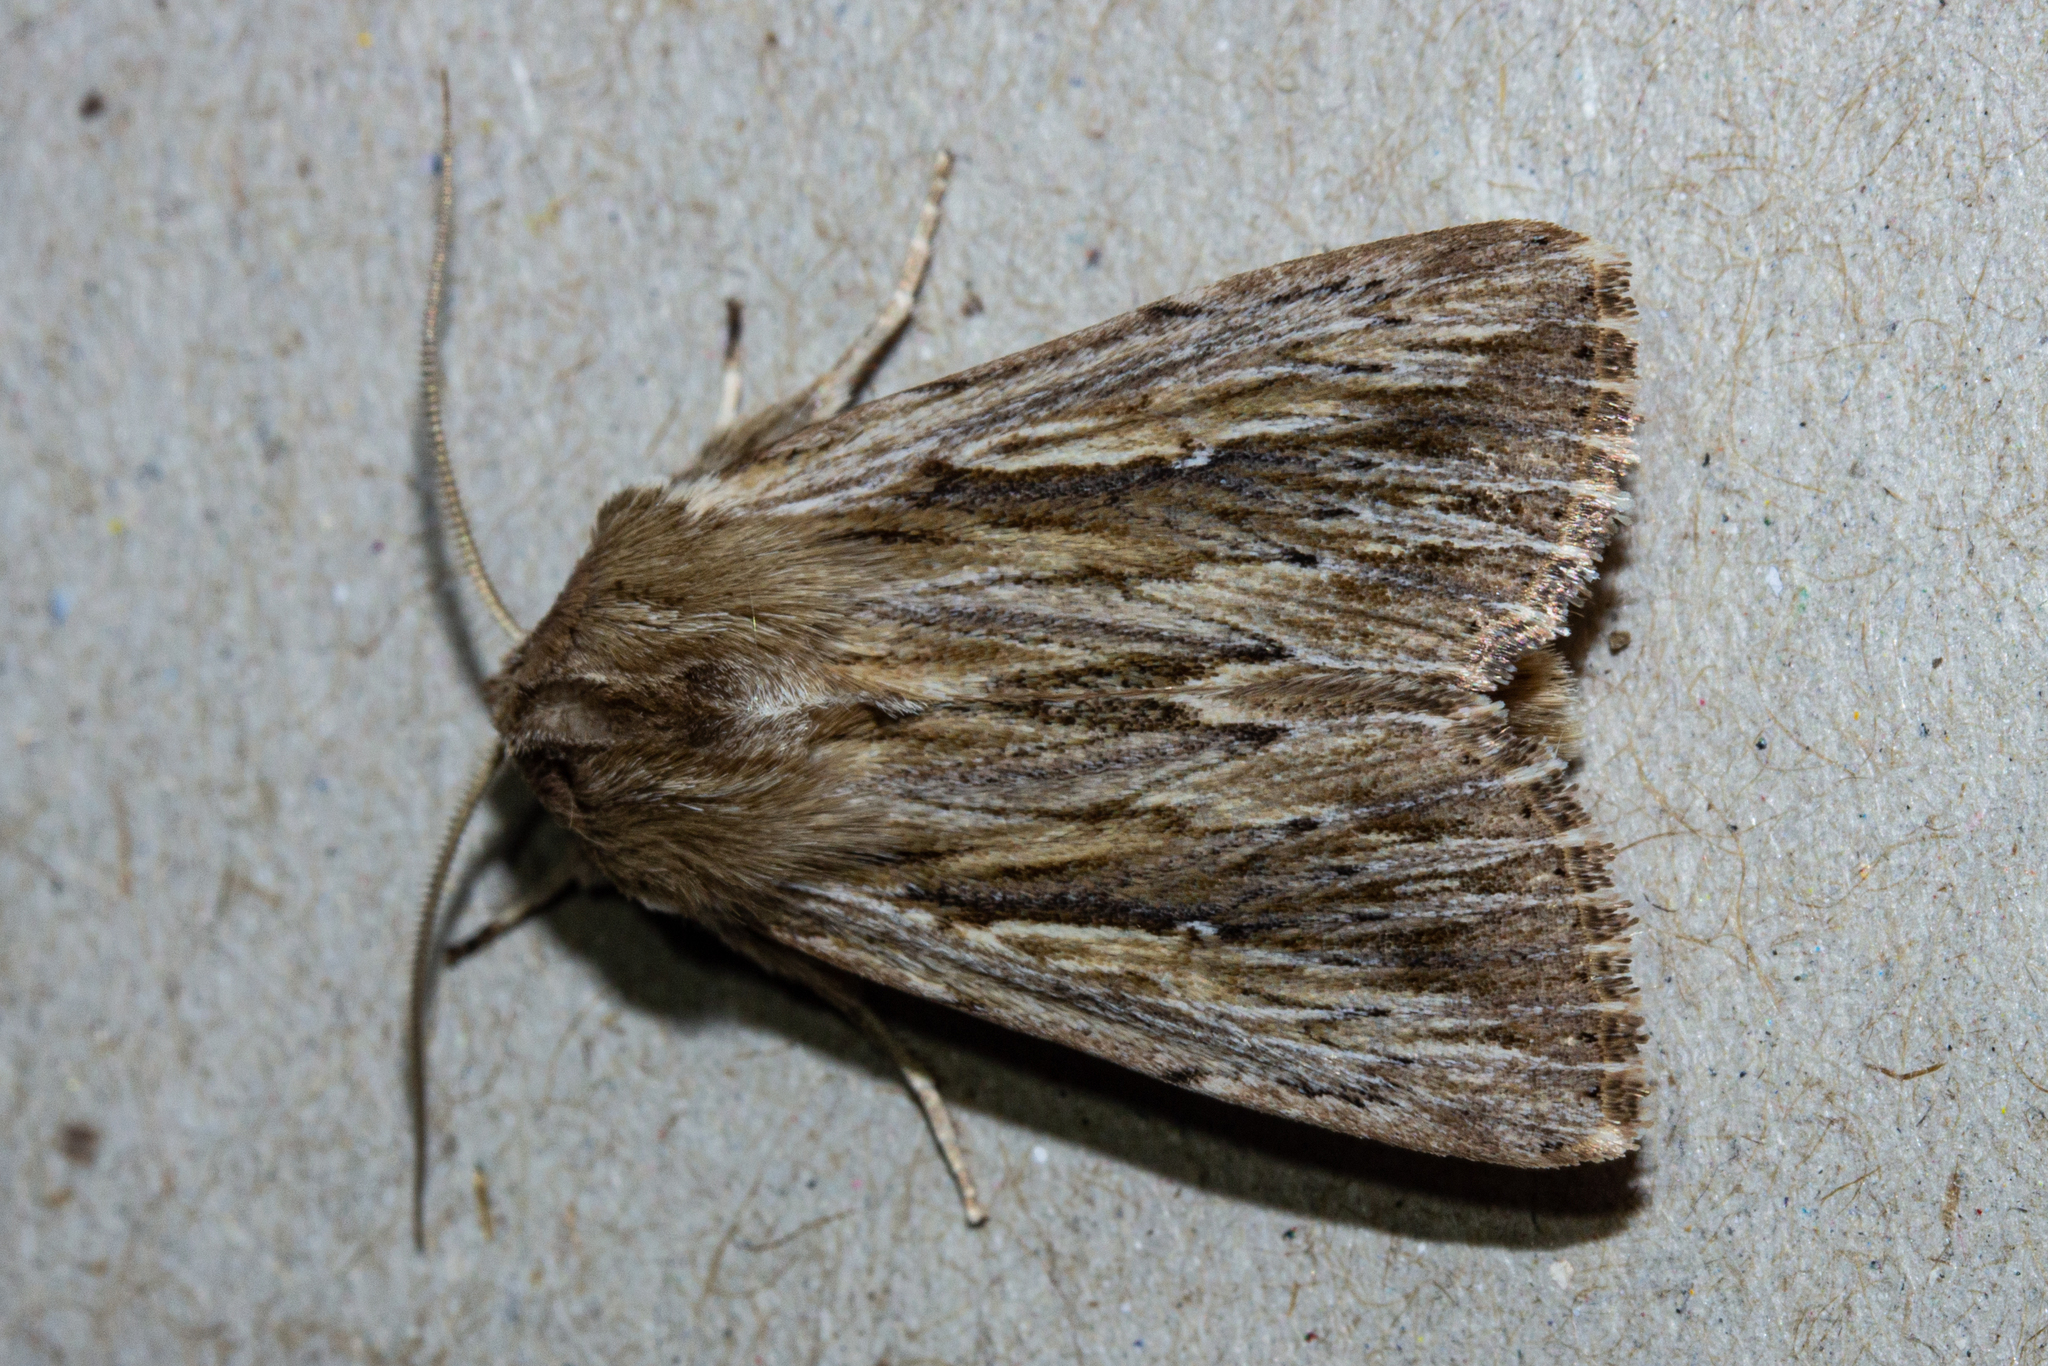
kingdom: Animalia
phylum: Arthropoda
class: Insecta
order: Lepidoptera
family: Noctuidae
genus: Persectania
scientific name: Persectania aversa
